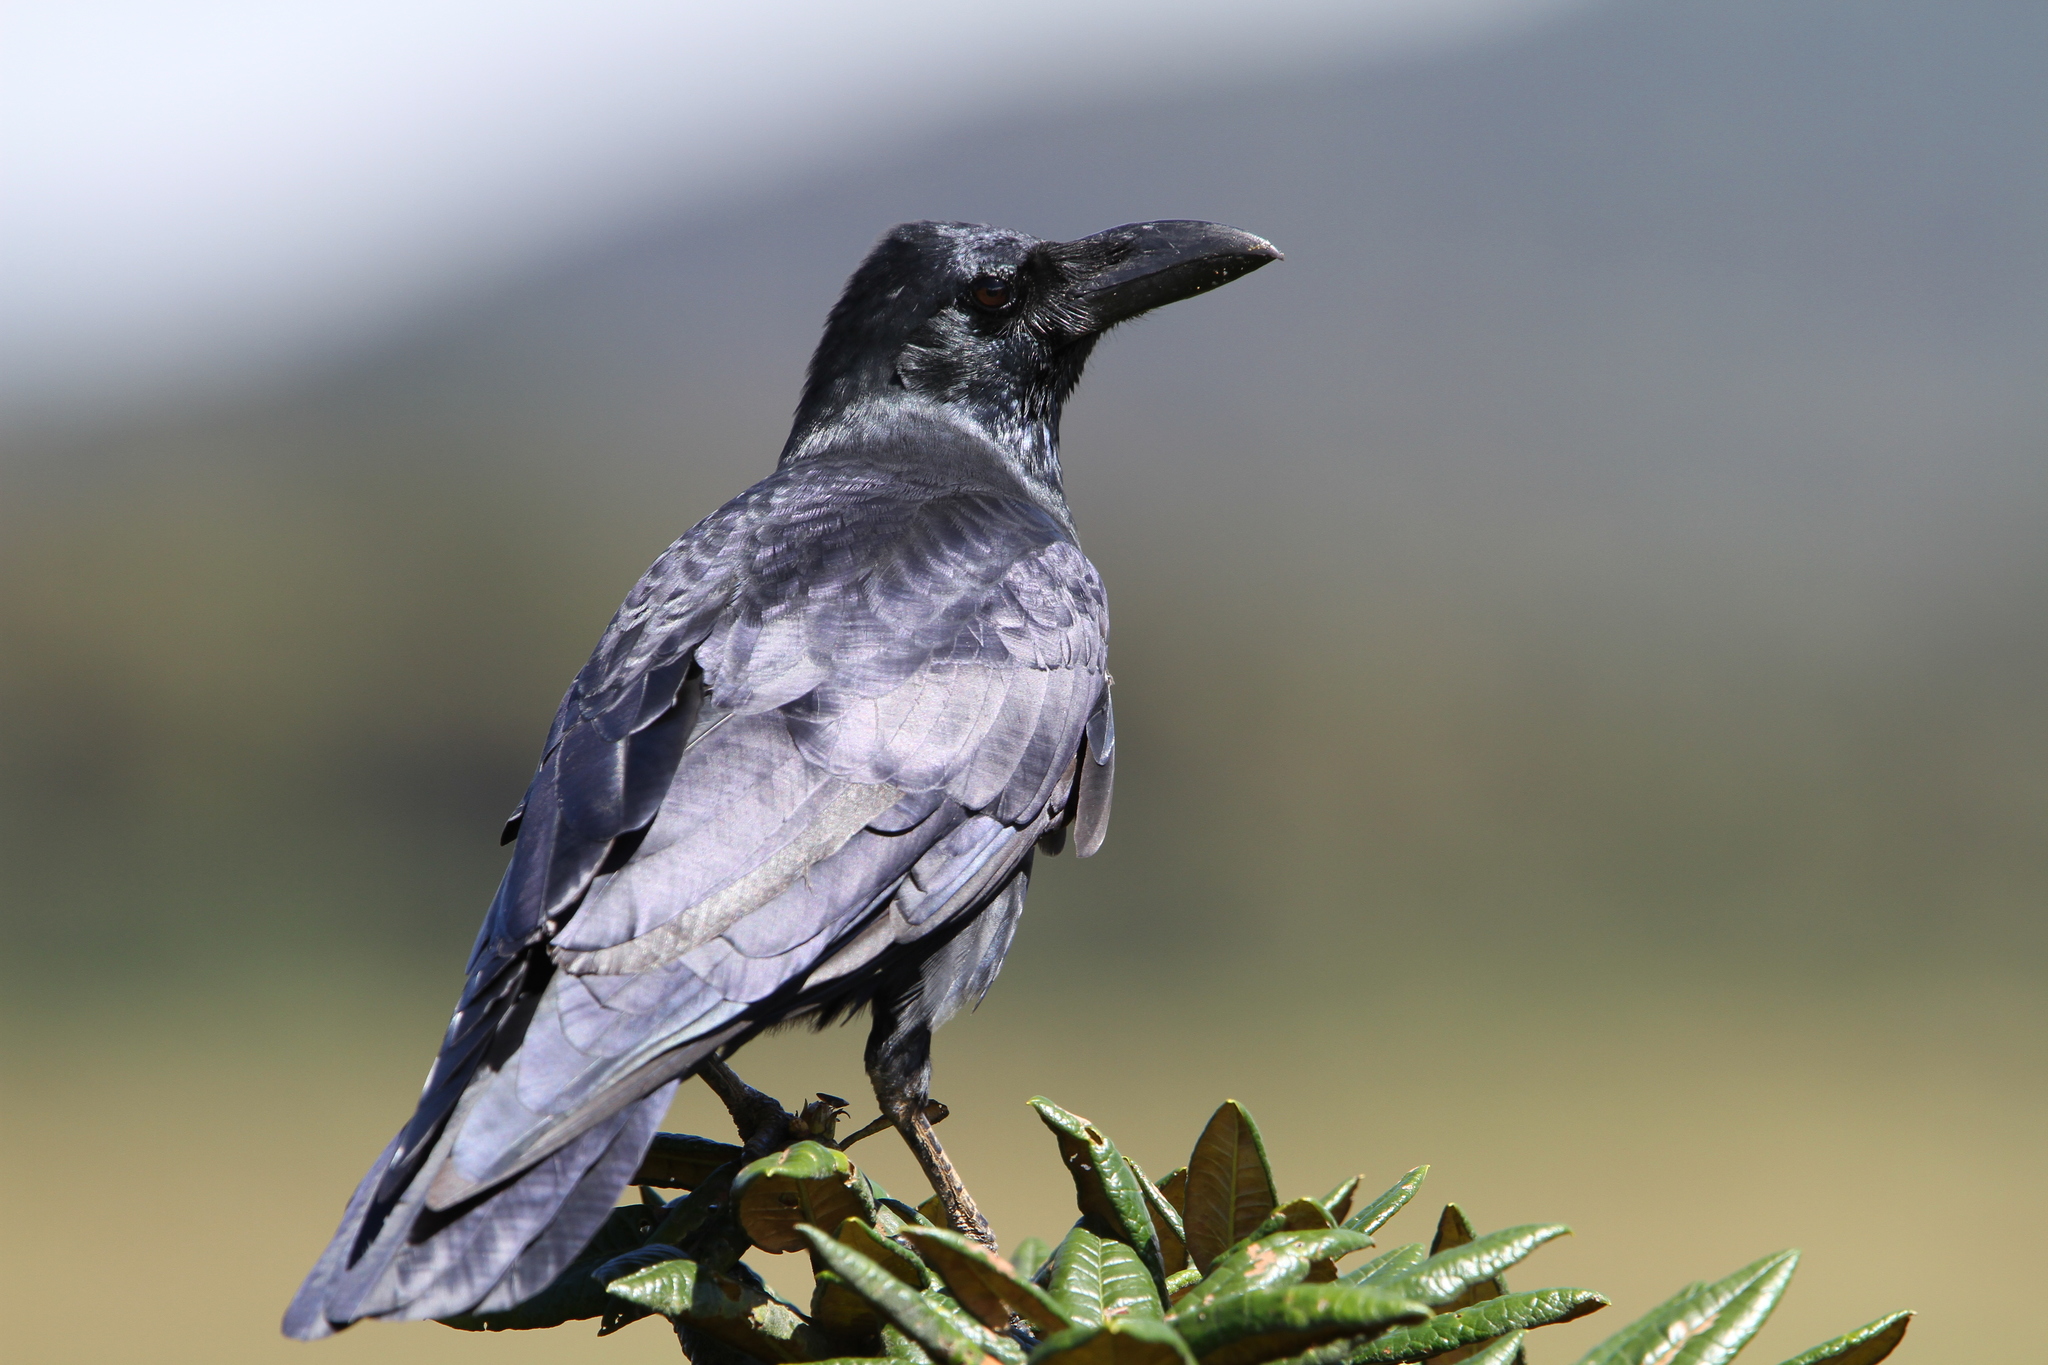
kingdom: Animalia
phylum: Chordata
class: Aves
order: Passeriformes
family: Corvidae
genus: Corvus
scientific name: Corvus macrorhynchos
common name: Large-billed crow
